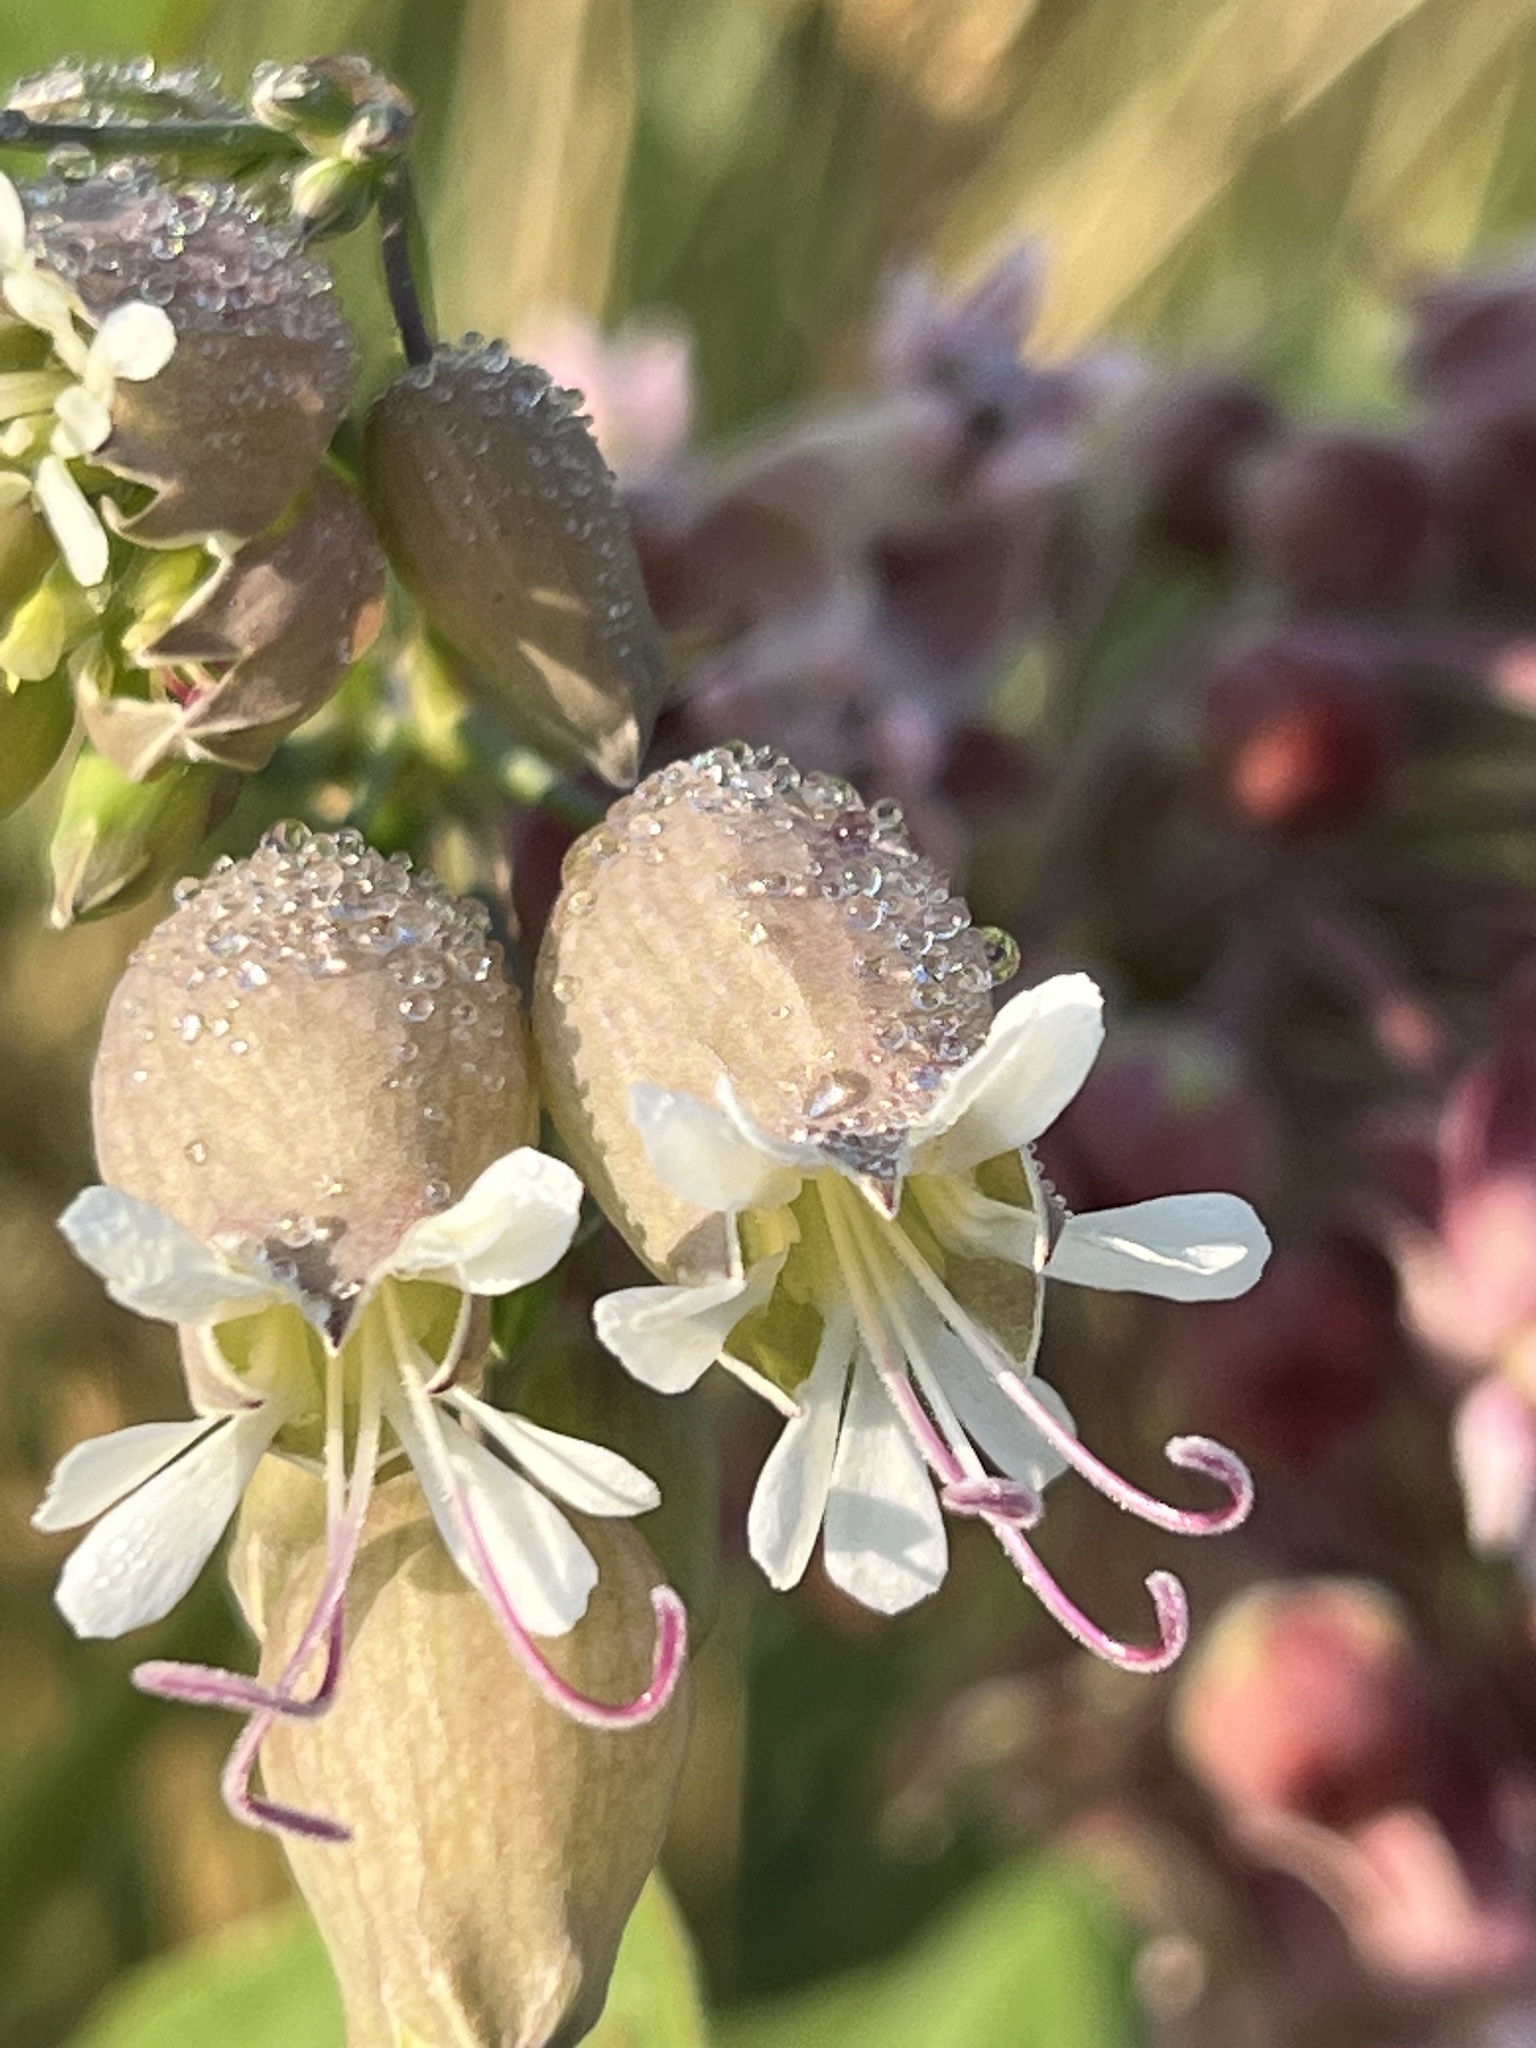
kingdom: Plantae
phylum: Tracheophyta
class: Magnoliopsida
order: Caryophyllales
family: Caryophyllaceae
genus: Silene
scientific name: Silene vulgaris
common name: Bladder campion
